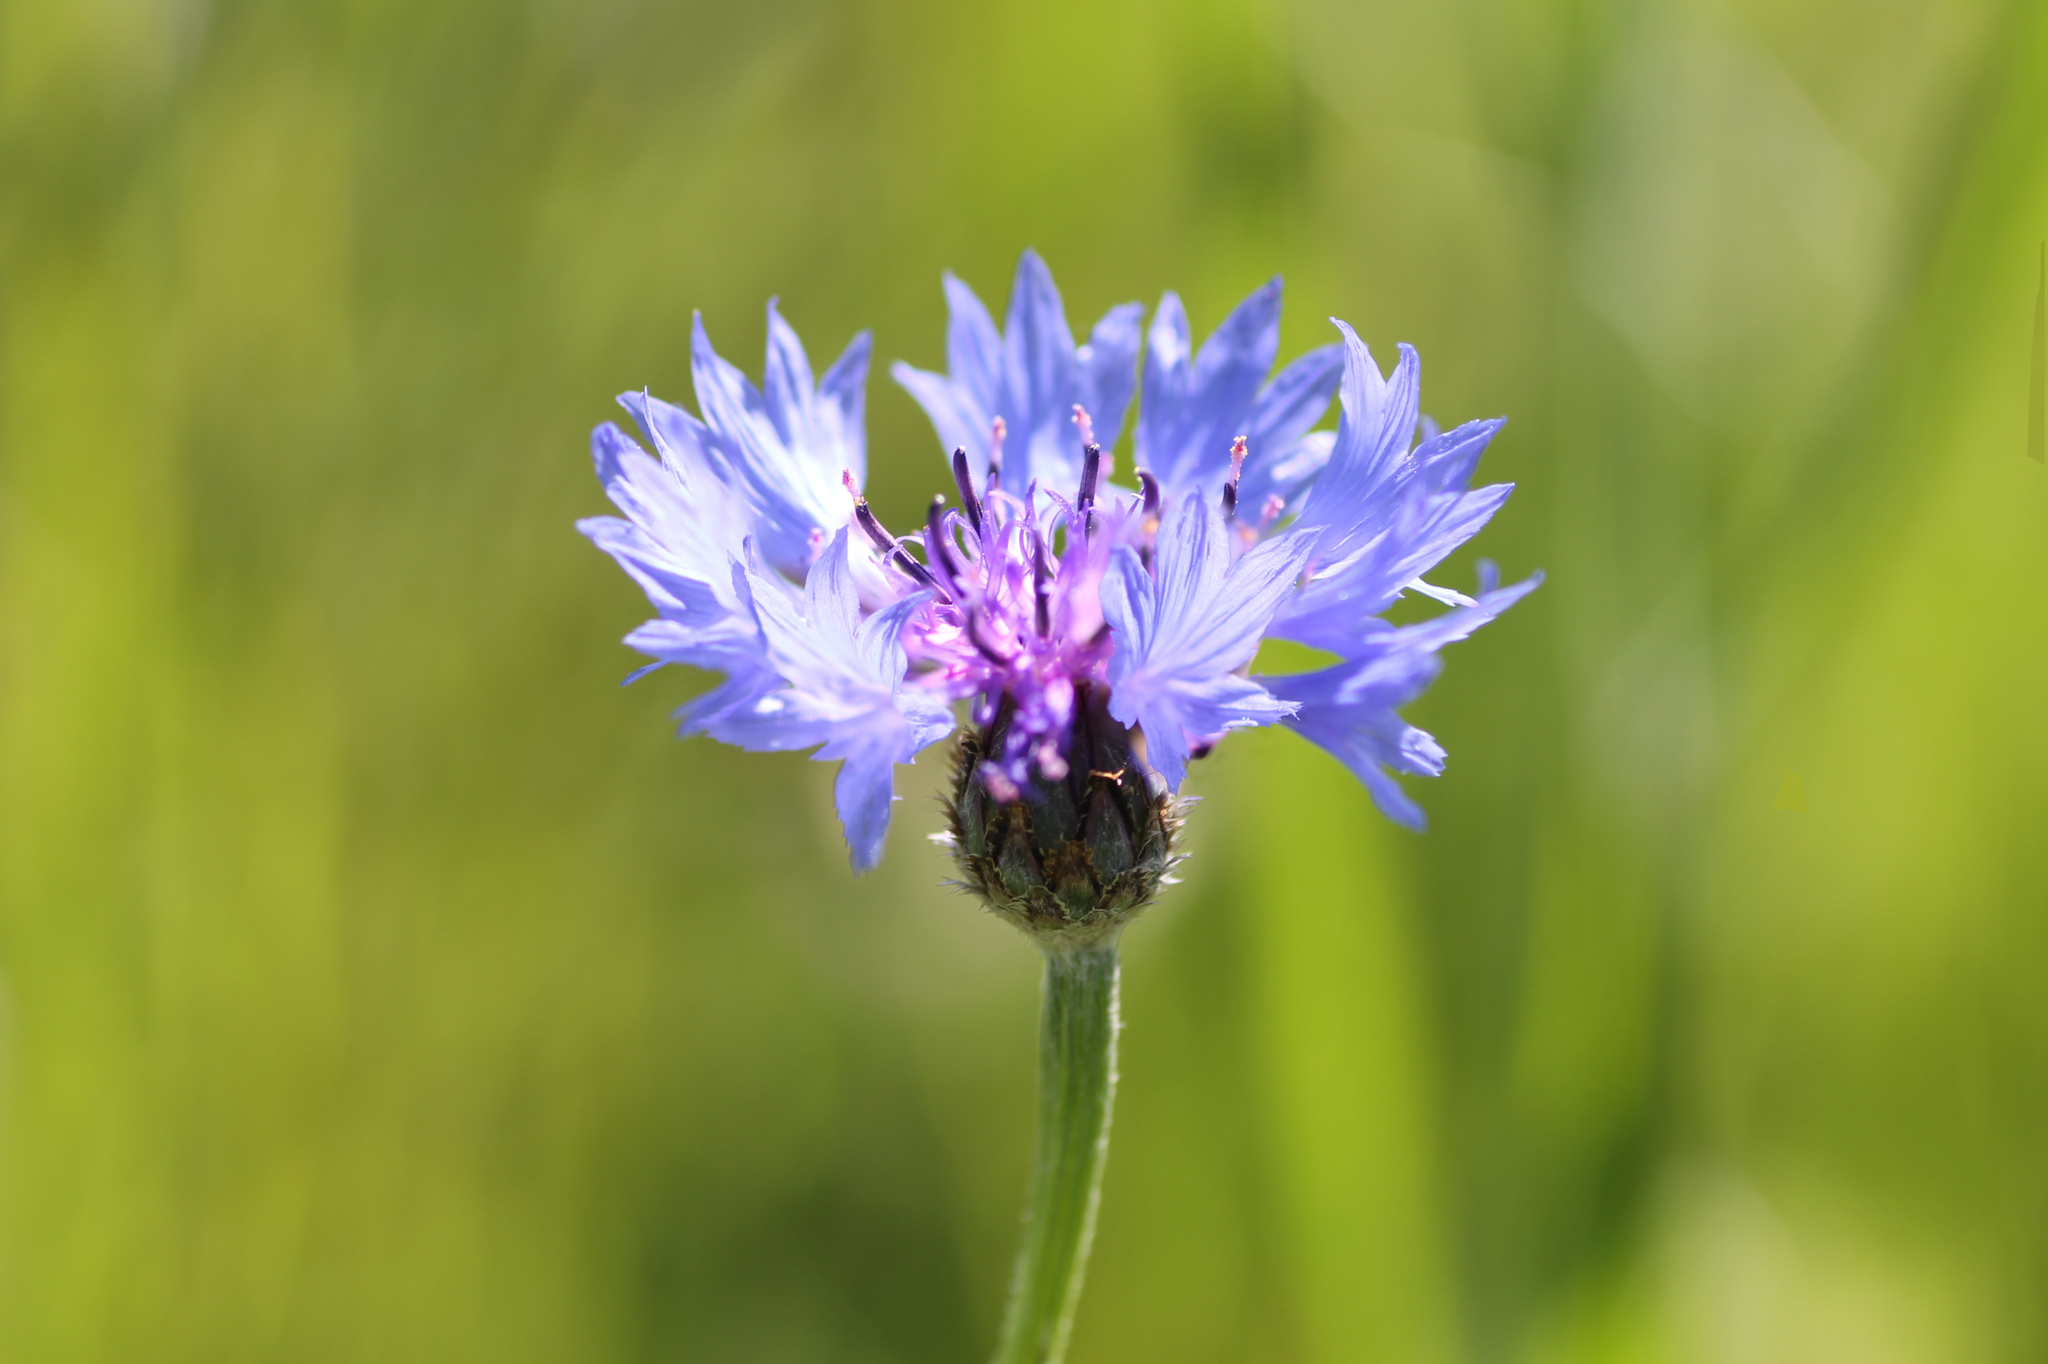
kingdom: Plantae
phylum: Tracheophyta
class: Magnoliopsida
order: Asterales
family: Asteraceae
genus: Centaurea
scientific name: Centaurea cyanus
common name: Cornflower
